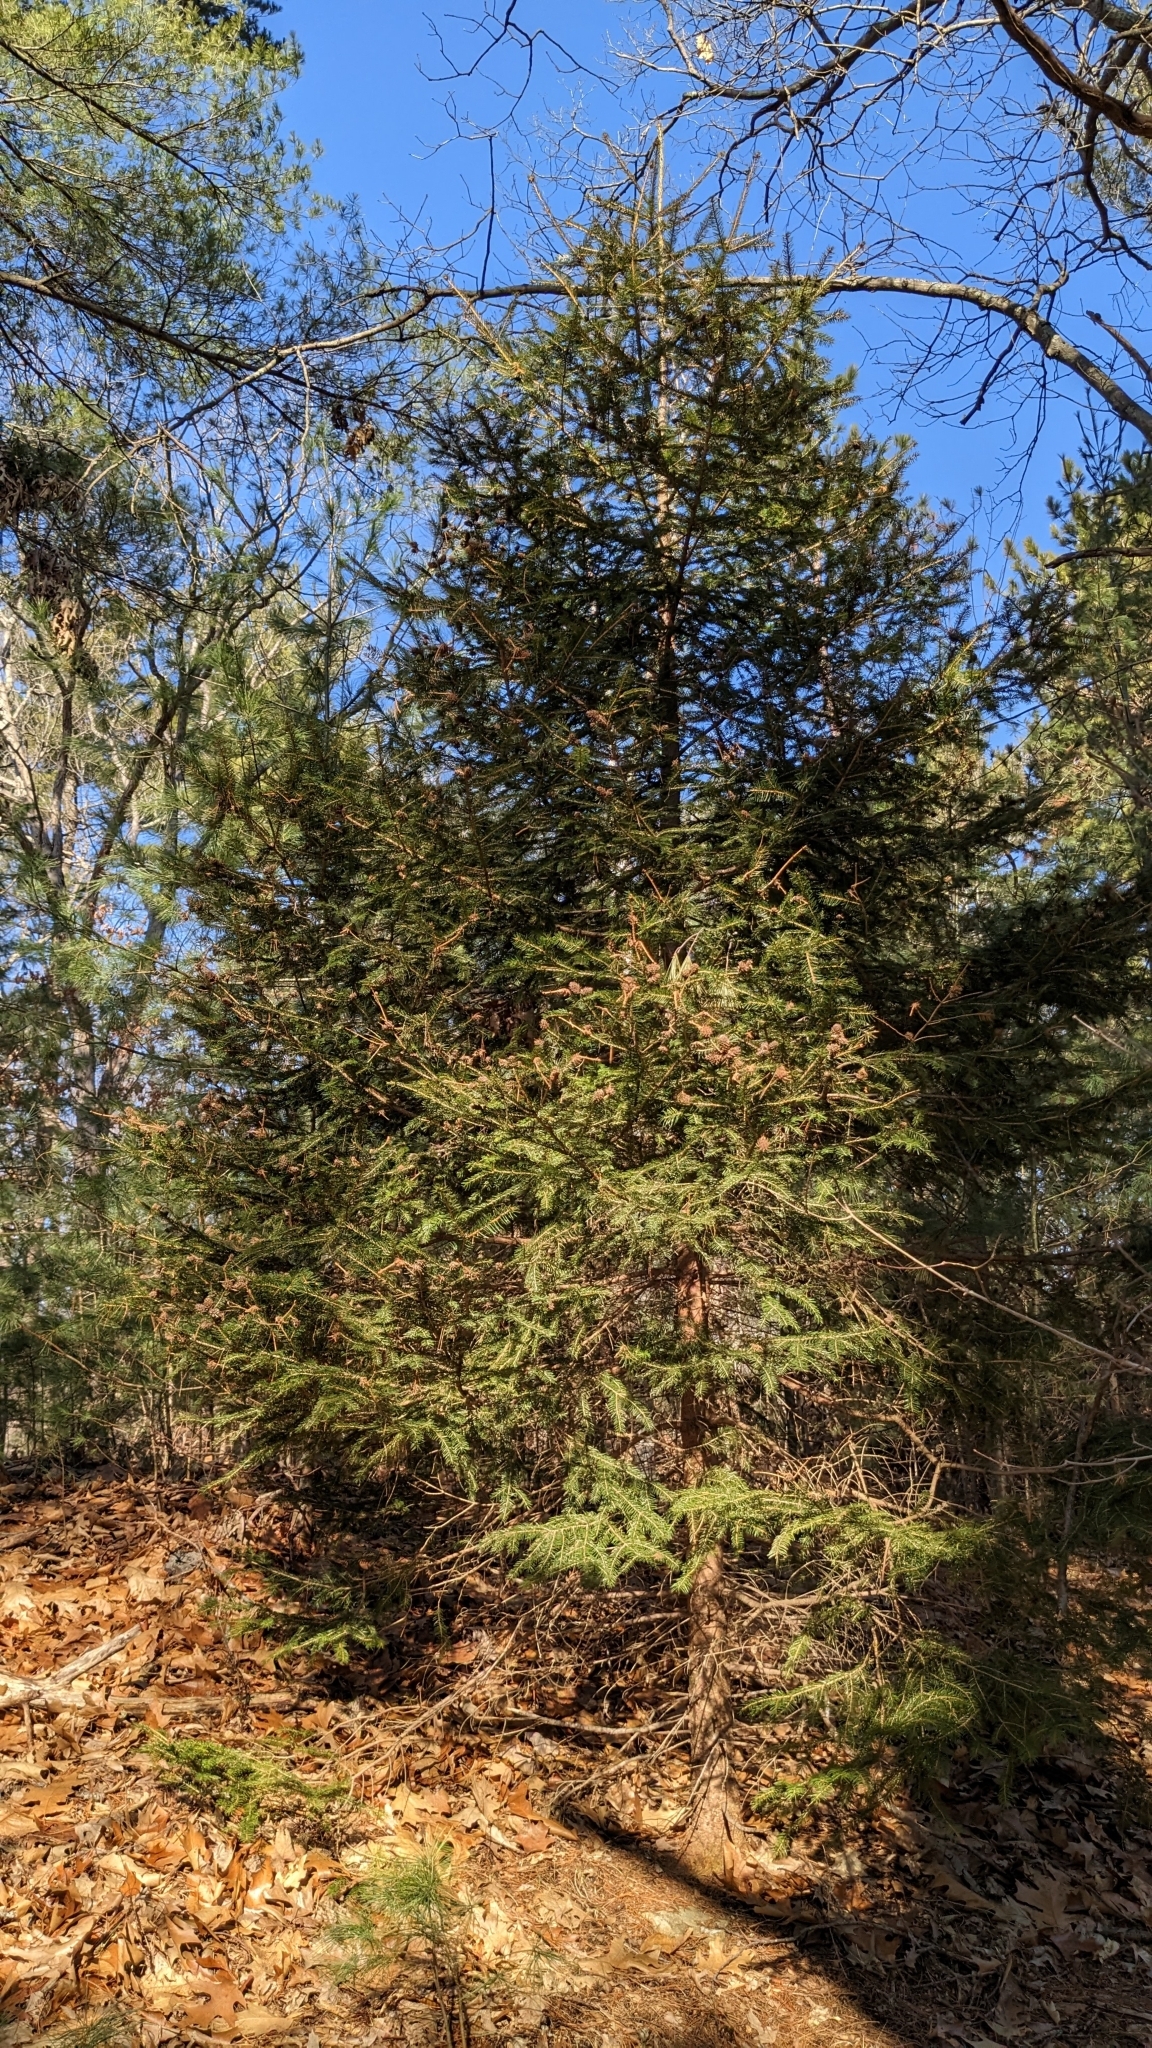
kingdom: Animalia
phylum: Arthropoda
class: Insecta
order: Hemiptera
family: Adelgidae
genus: Adelges
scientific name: Adelges abietis
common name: Eastern spruce gall adelgid
